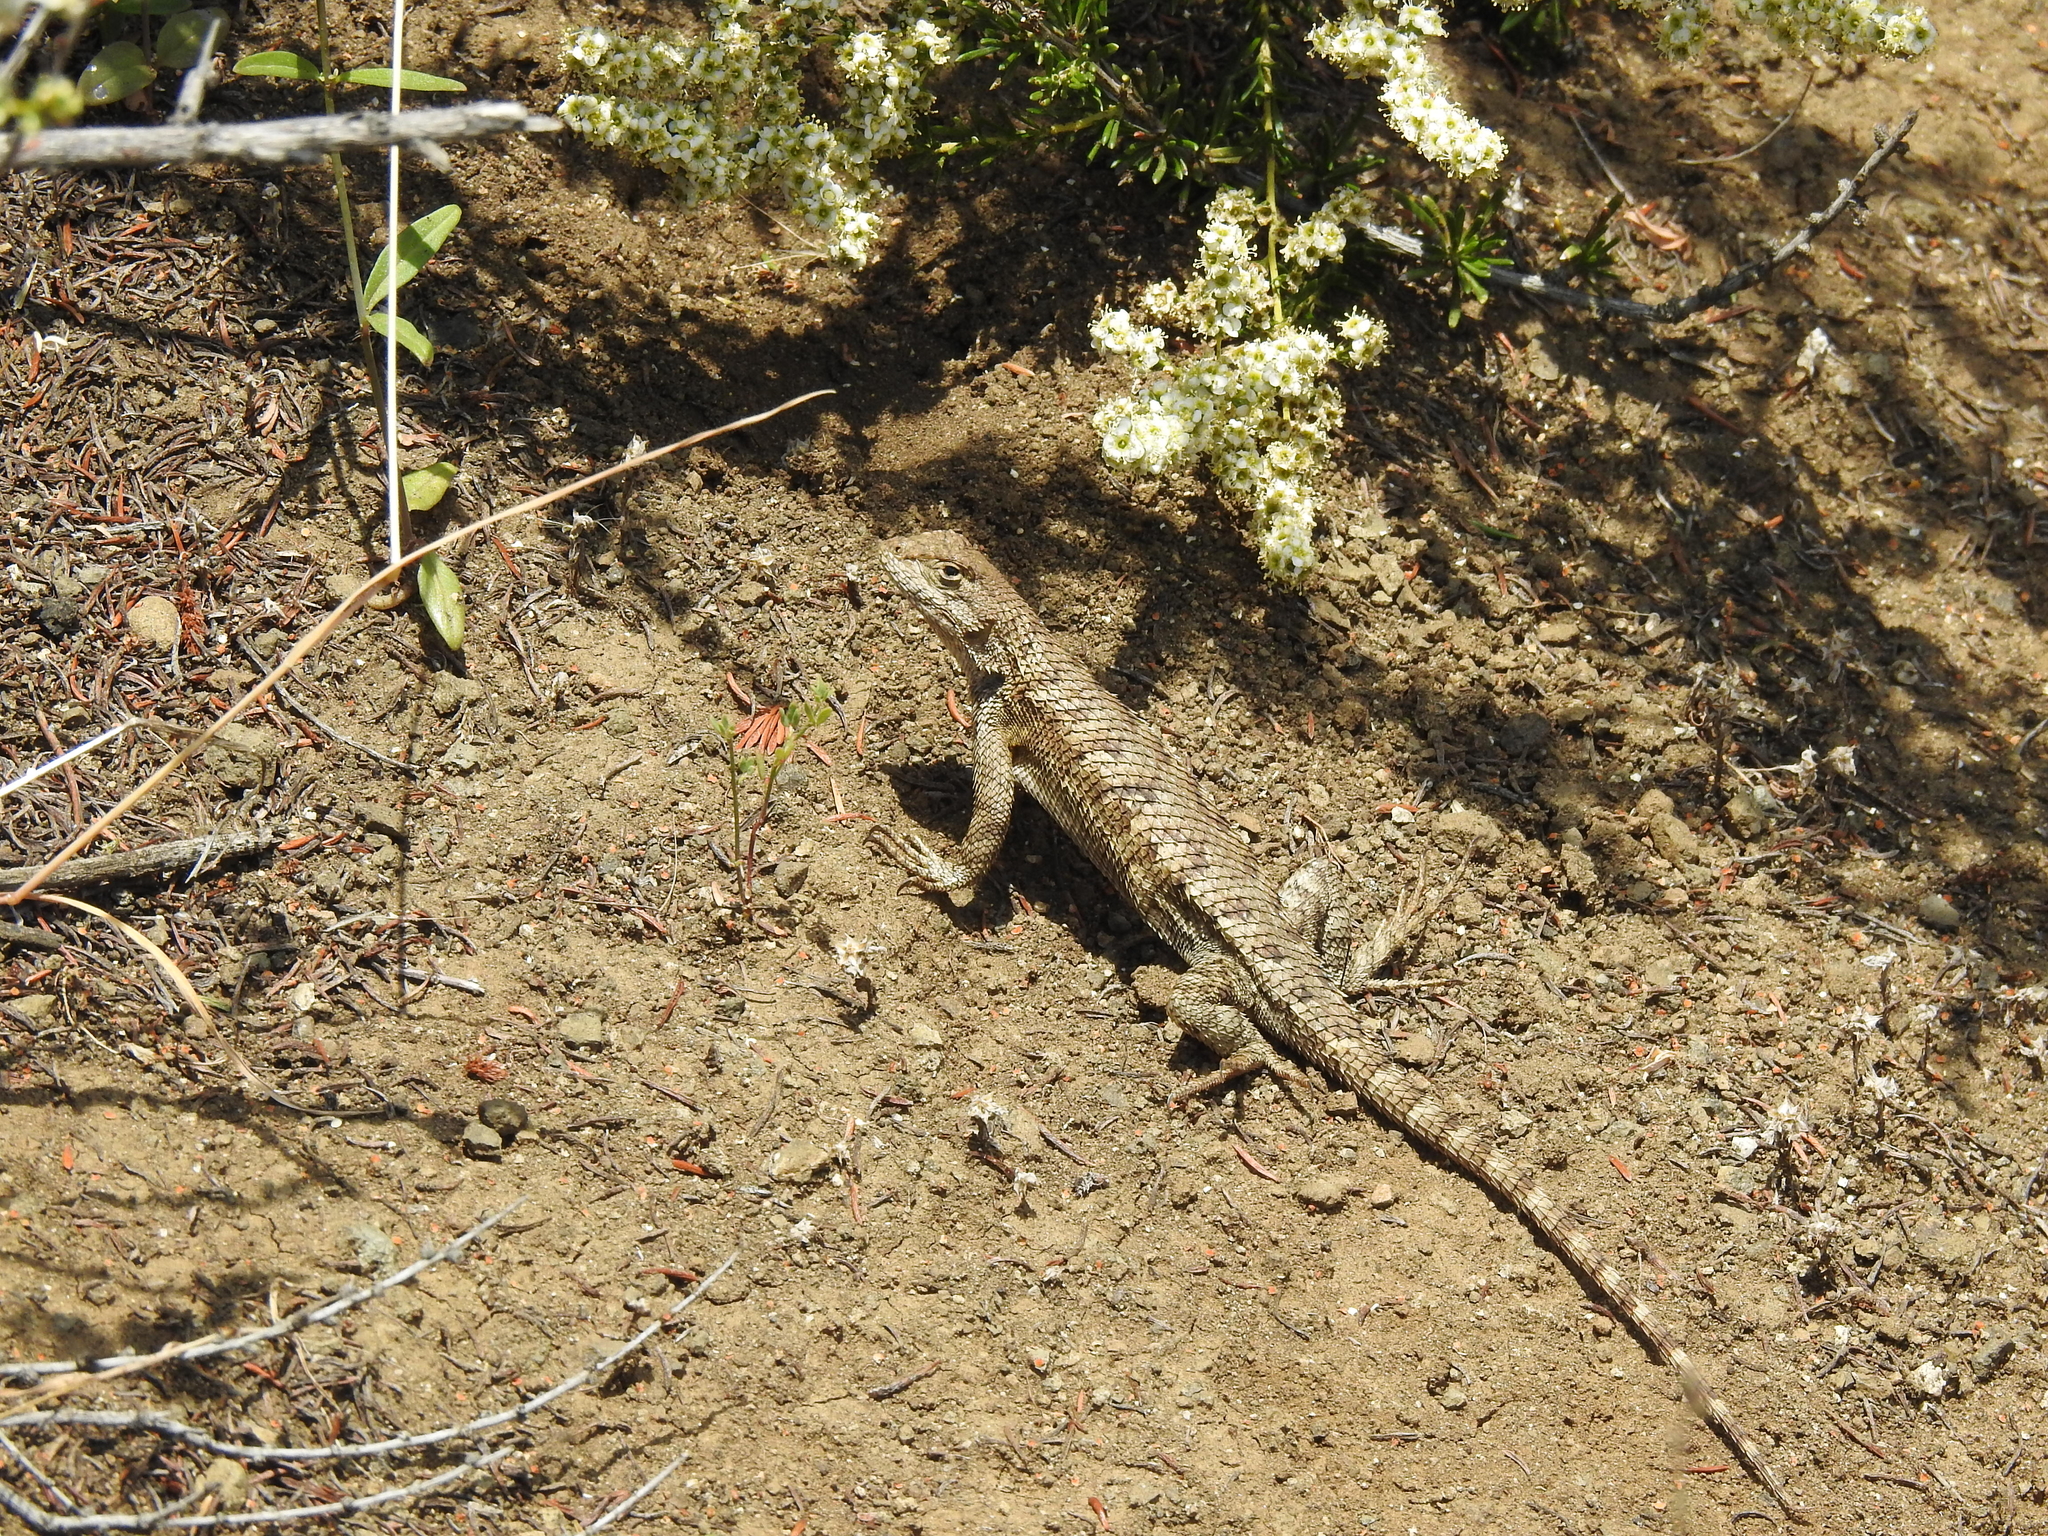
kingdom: Animalia
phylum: Chordata
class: Squamata
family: Phrynosomatidae
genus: Sceloporus
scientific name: Sceloporus occidentalis
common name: Western fence lizard
